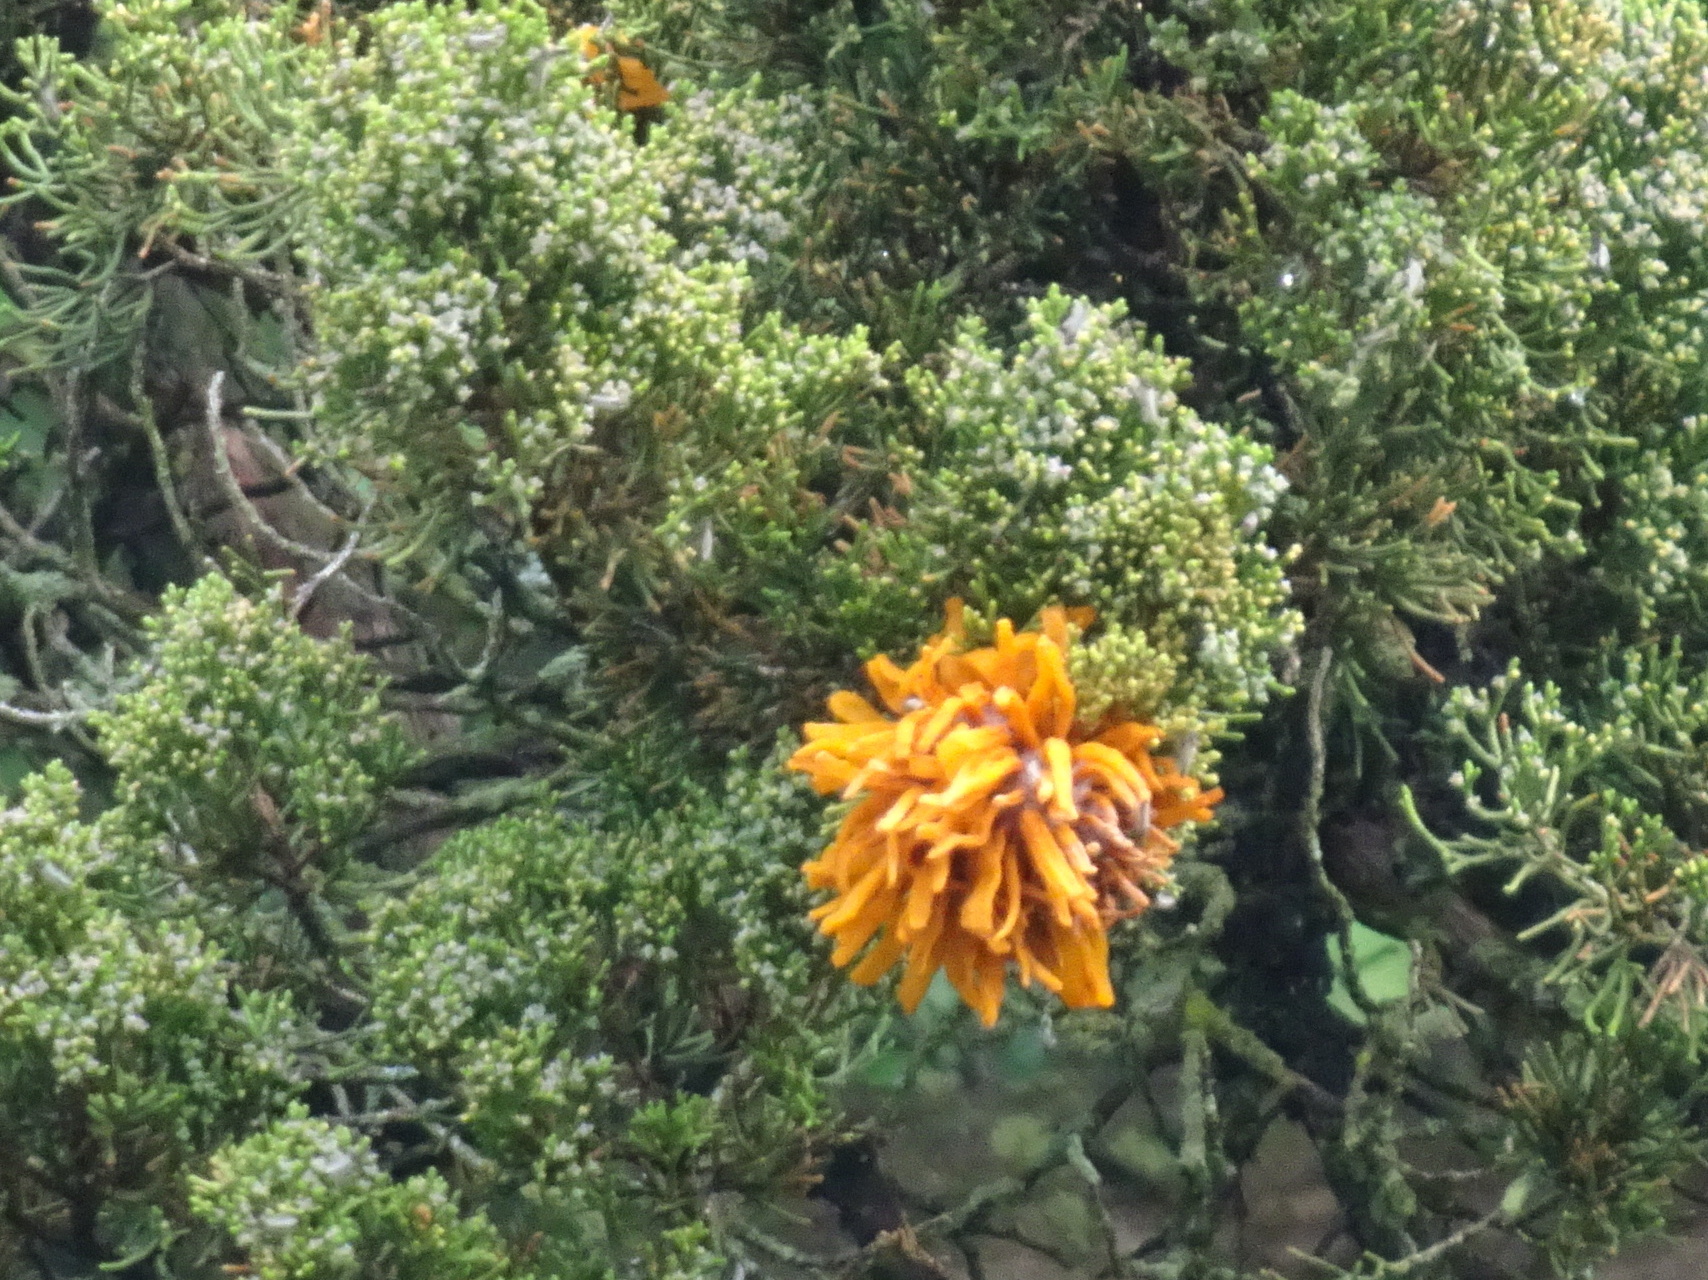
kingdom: Fungi
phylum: Basidiomycota
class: Pucciniomycetes
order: Pucciniales
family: Gymnosporangiaceae
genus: Gymnosporangium
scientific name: Gymnosporangium juniperi-virginianae
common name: Juniper-apple rust
